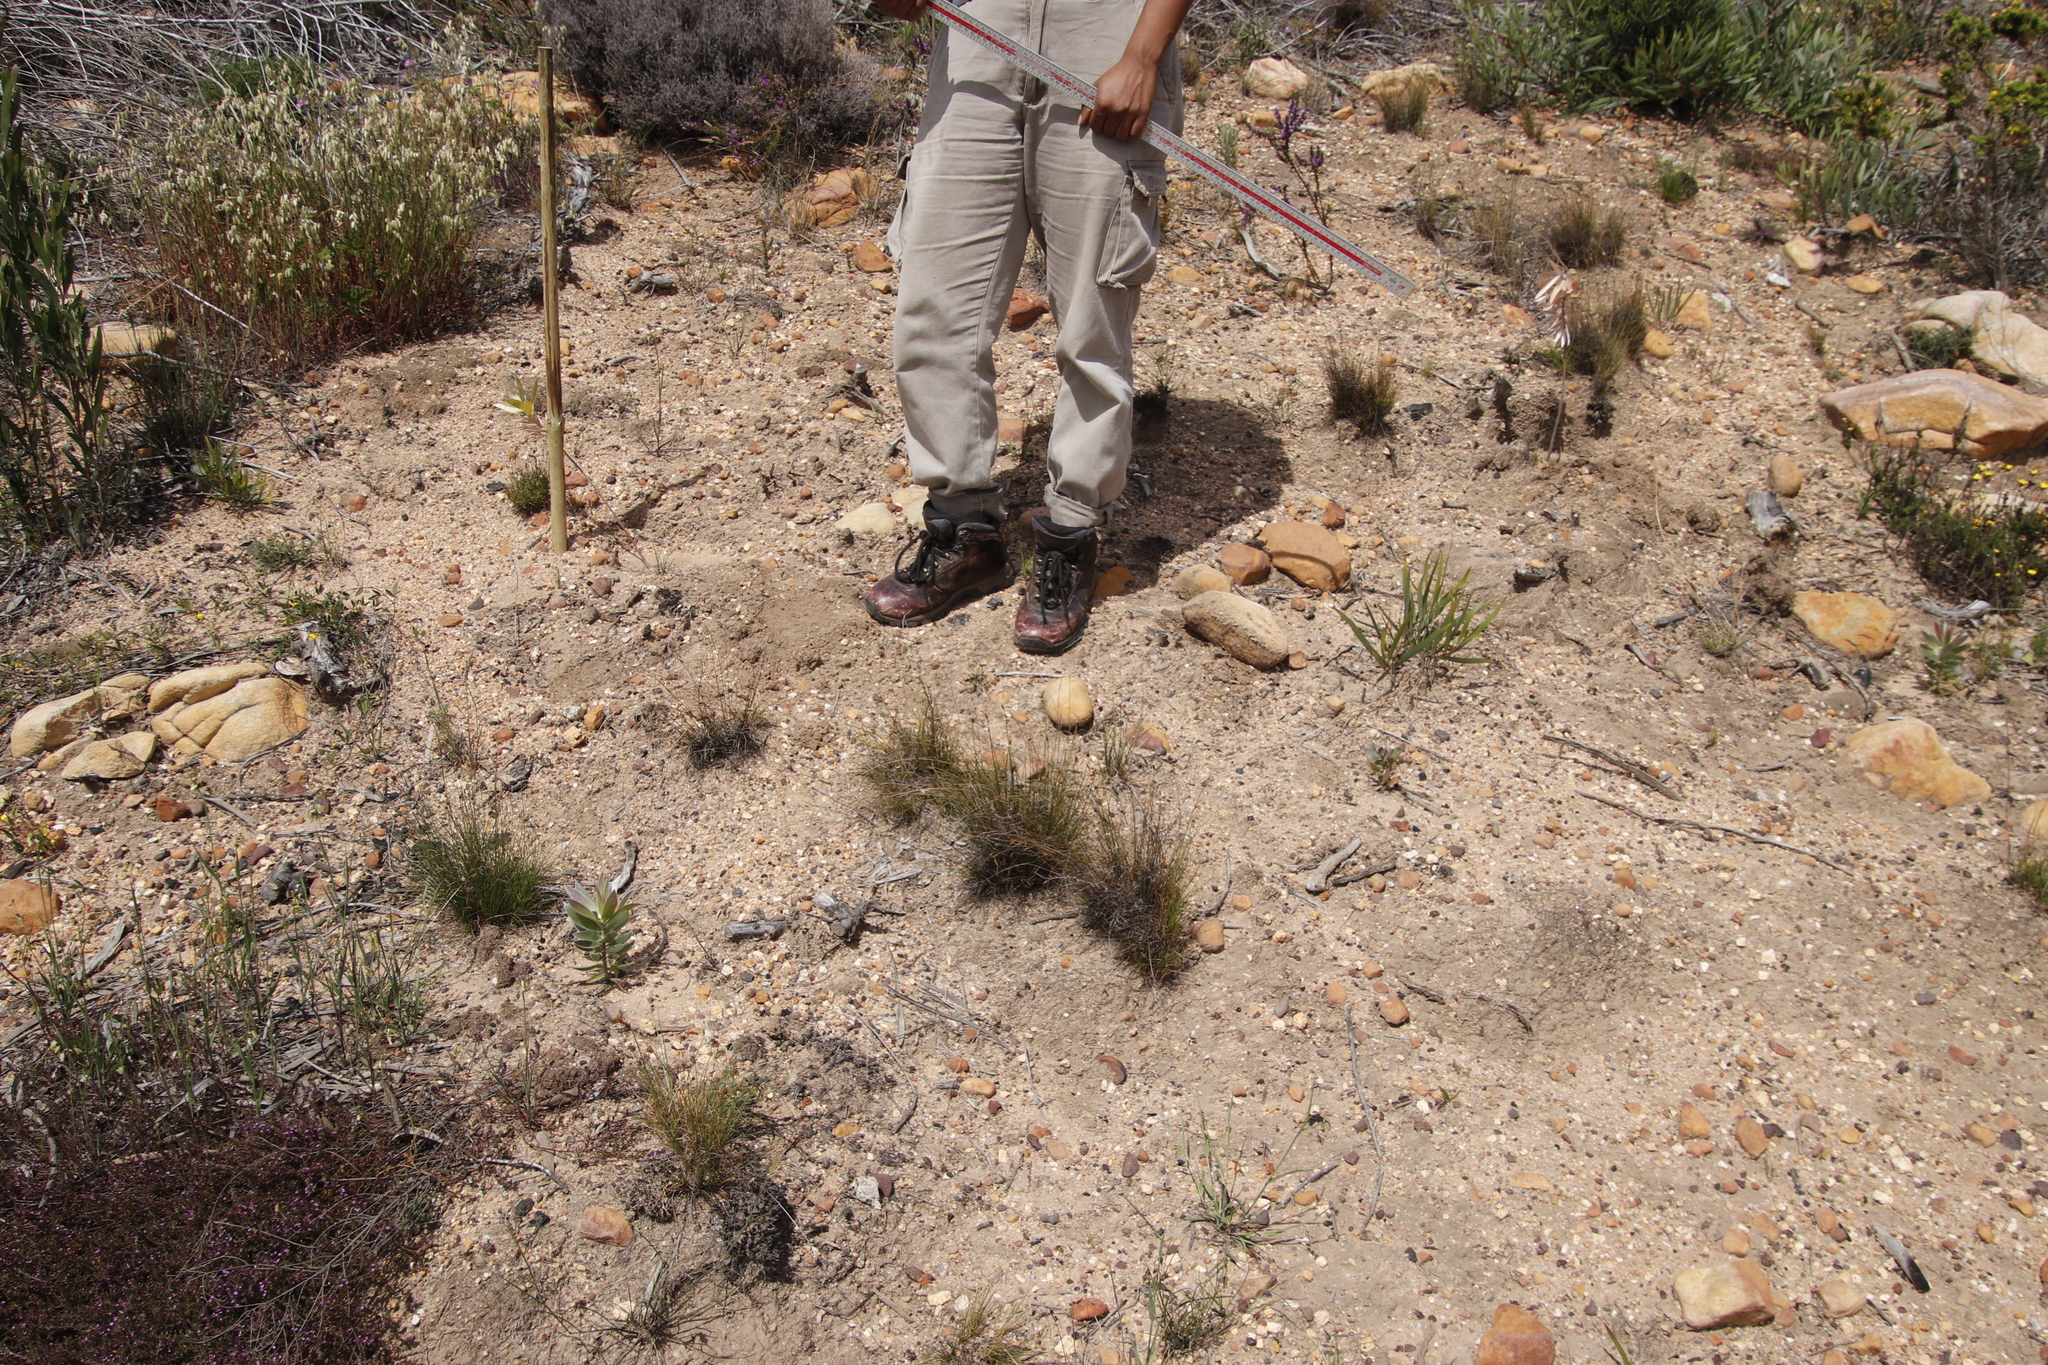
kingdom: Plantae
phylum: Tracheophyta
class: Magnoliopsida
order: Proteales
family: Proteaceae
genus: Leucadendron
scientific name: Leucadendron argenteum
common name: Cape silver tree
